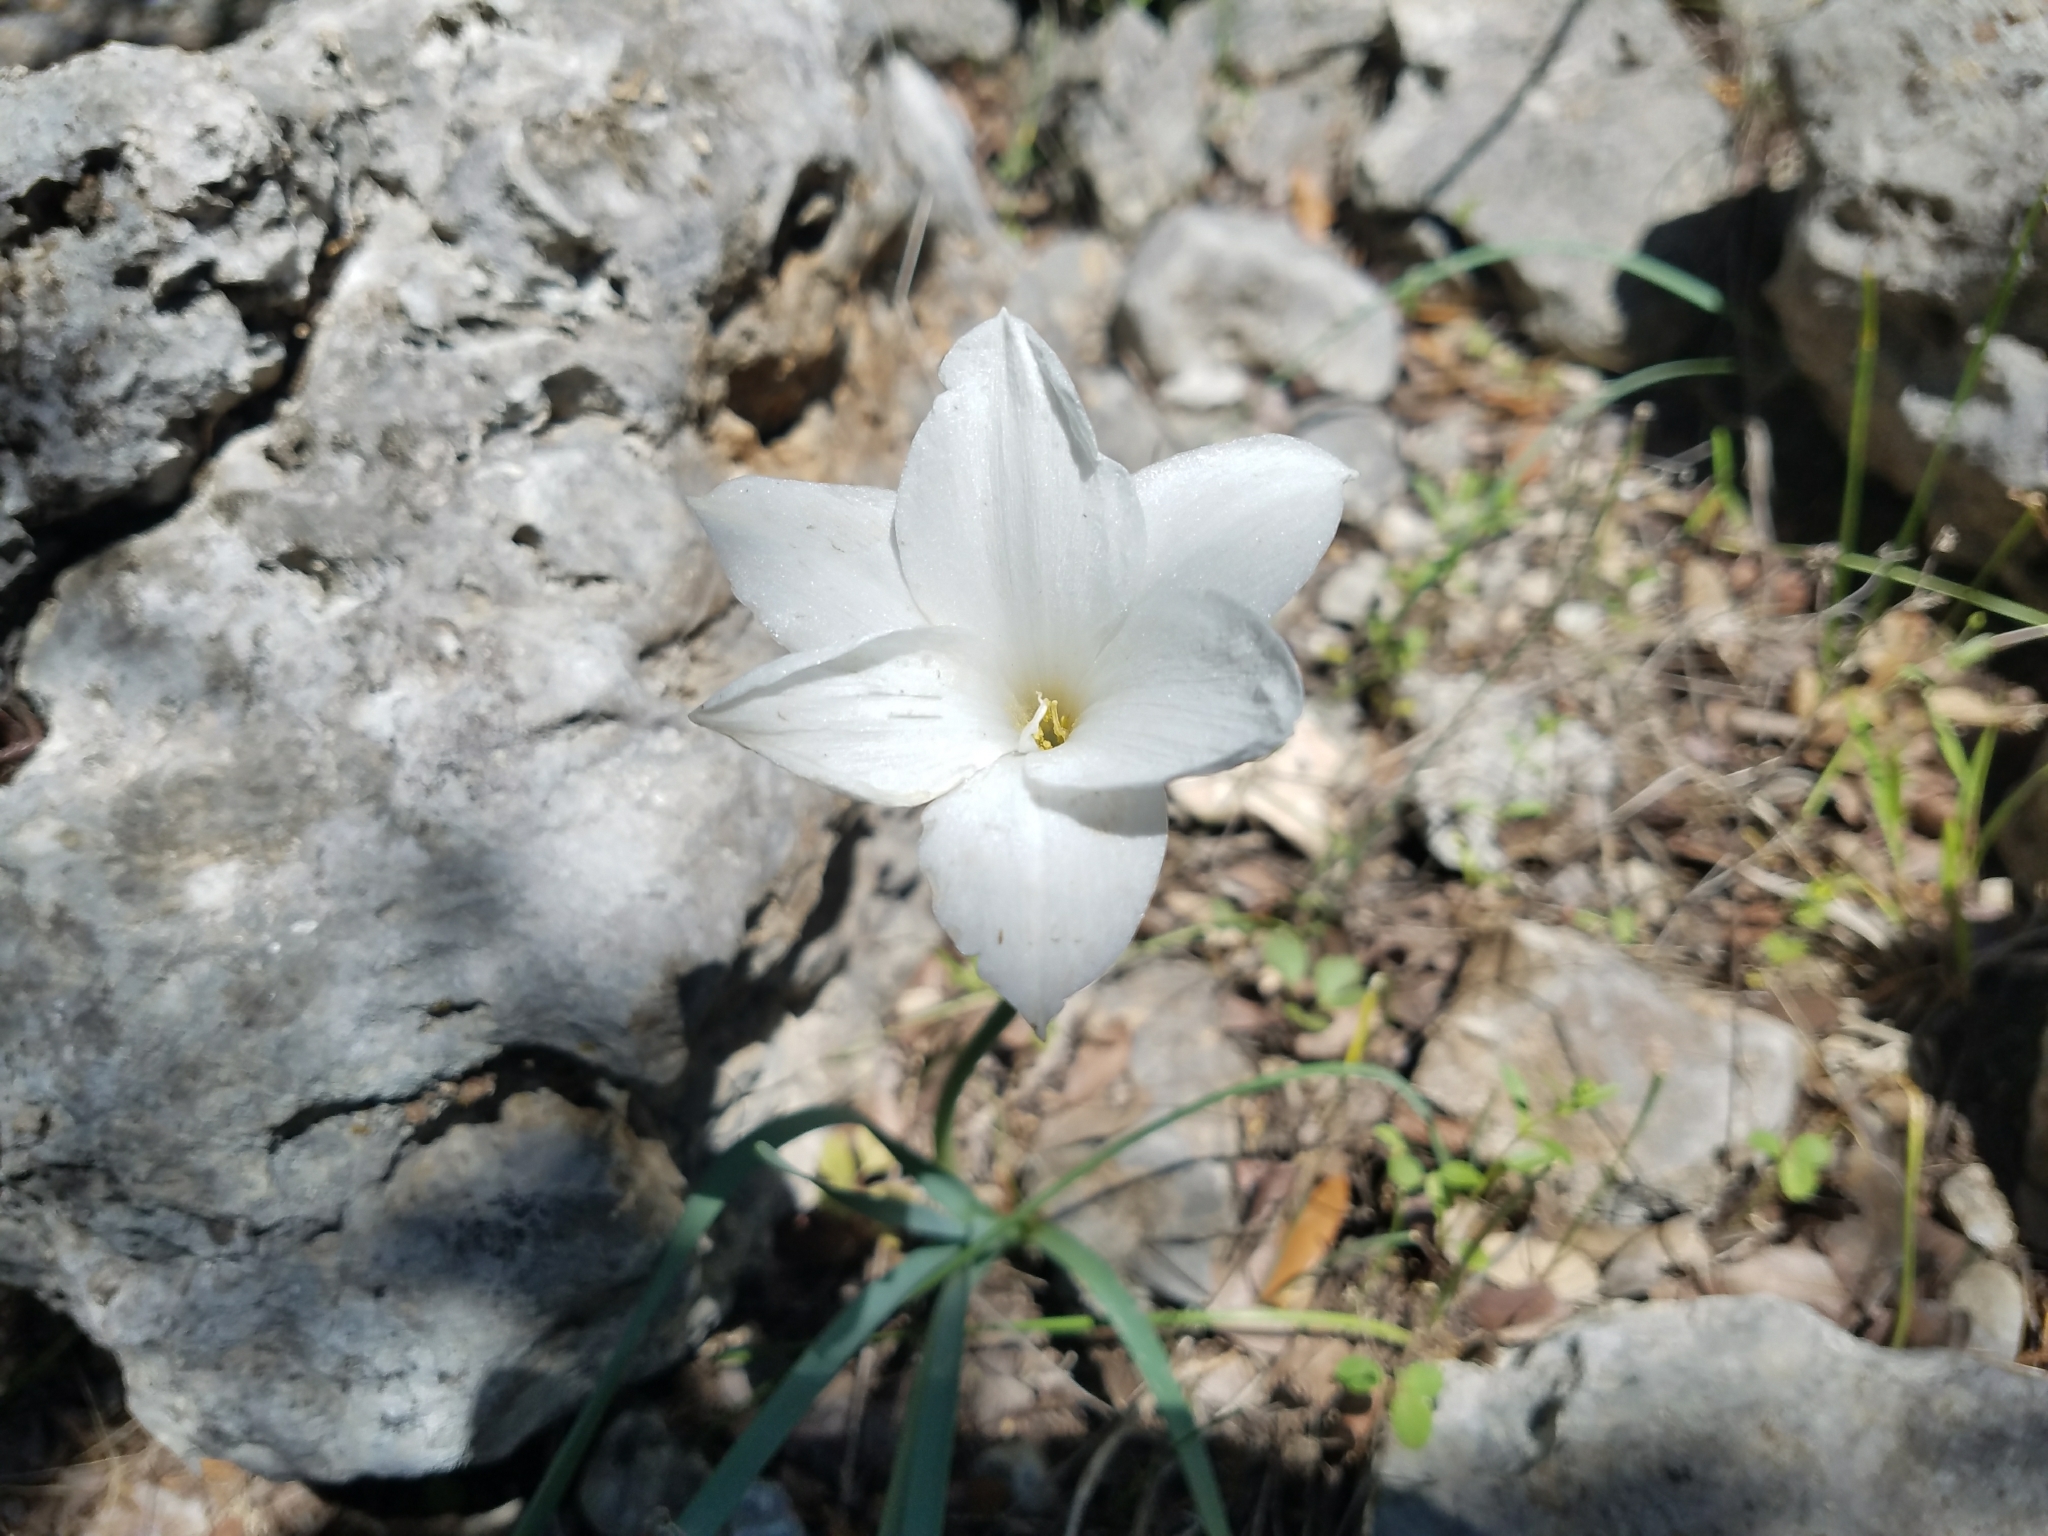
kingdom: Plantae
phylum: Tracheophyta
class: Liliopsida
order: Asparagales
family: Amaryllidaceae
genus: Zephyranthes
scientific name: Zephyranthes drummondii
